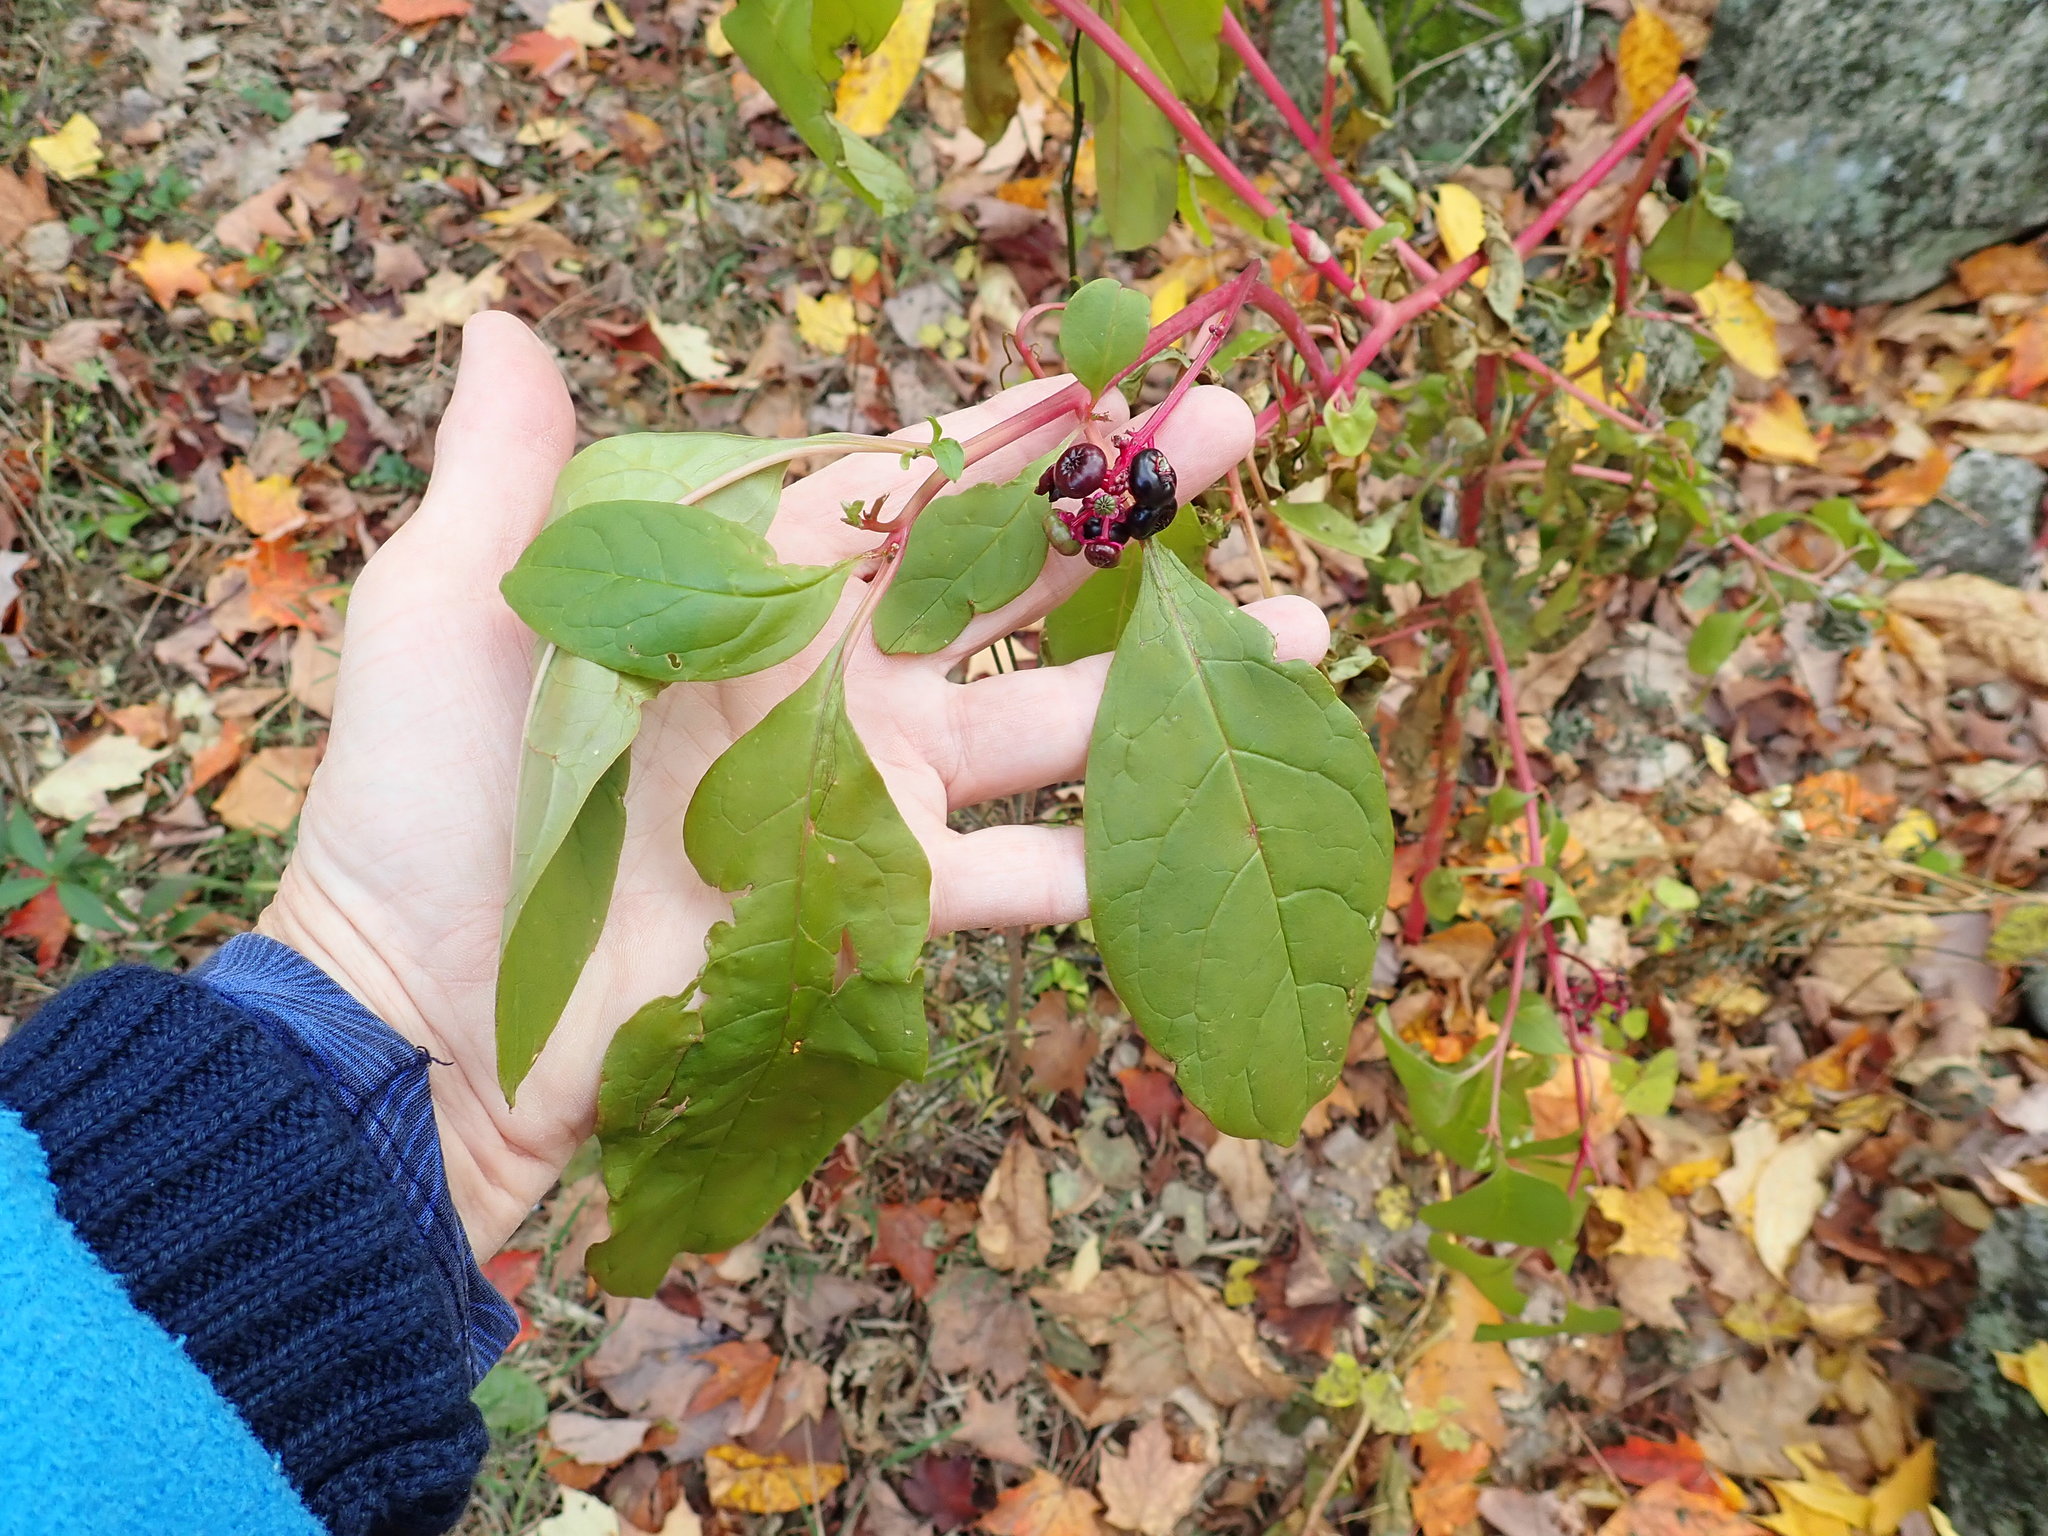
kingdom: Plantae
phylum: Tracheophyta
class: Magnoliopsida
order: Caryophyllales
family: Phytolaccaceae
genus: Phytolacca
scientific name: Phytolacca americana
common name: American pokeweed
